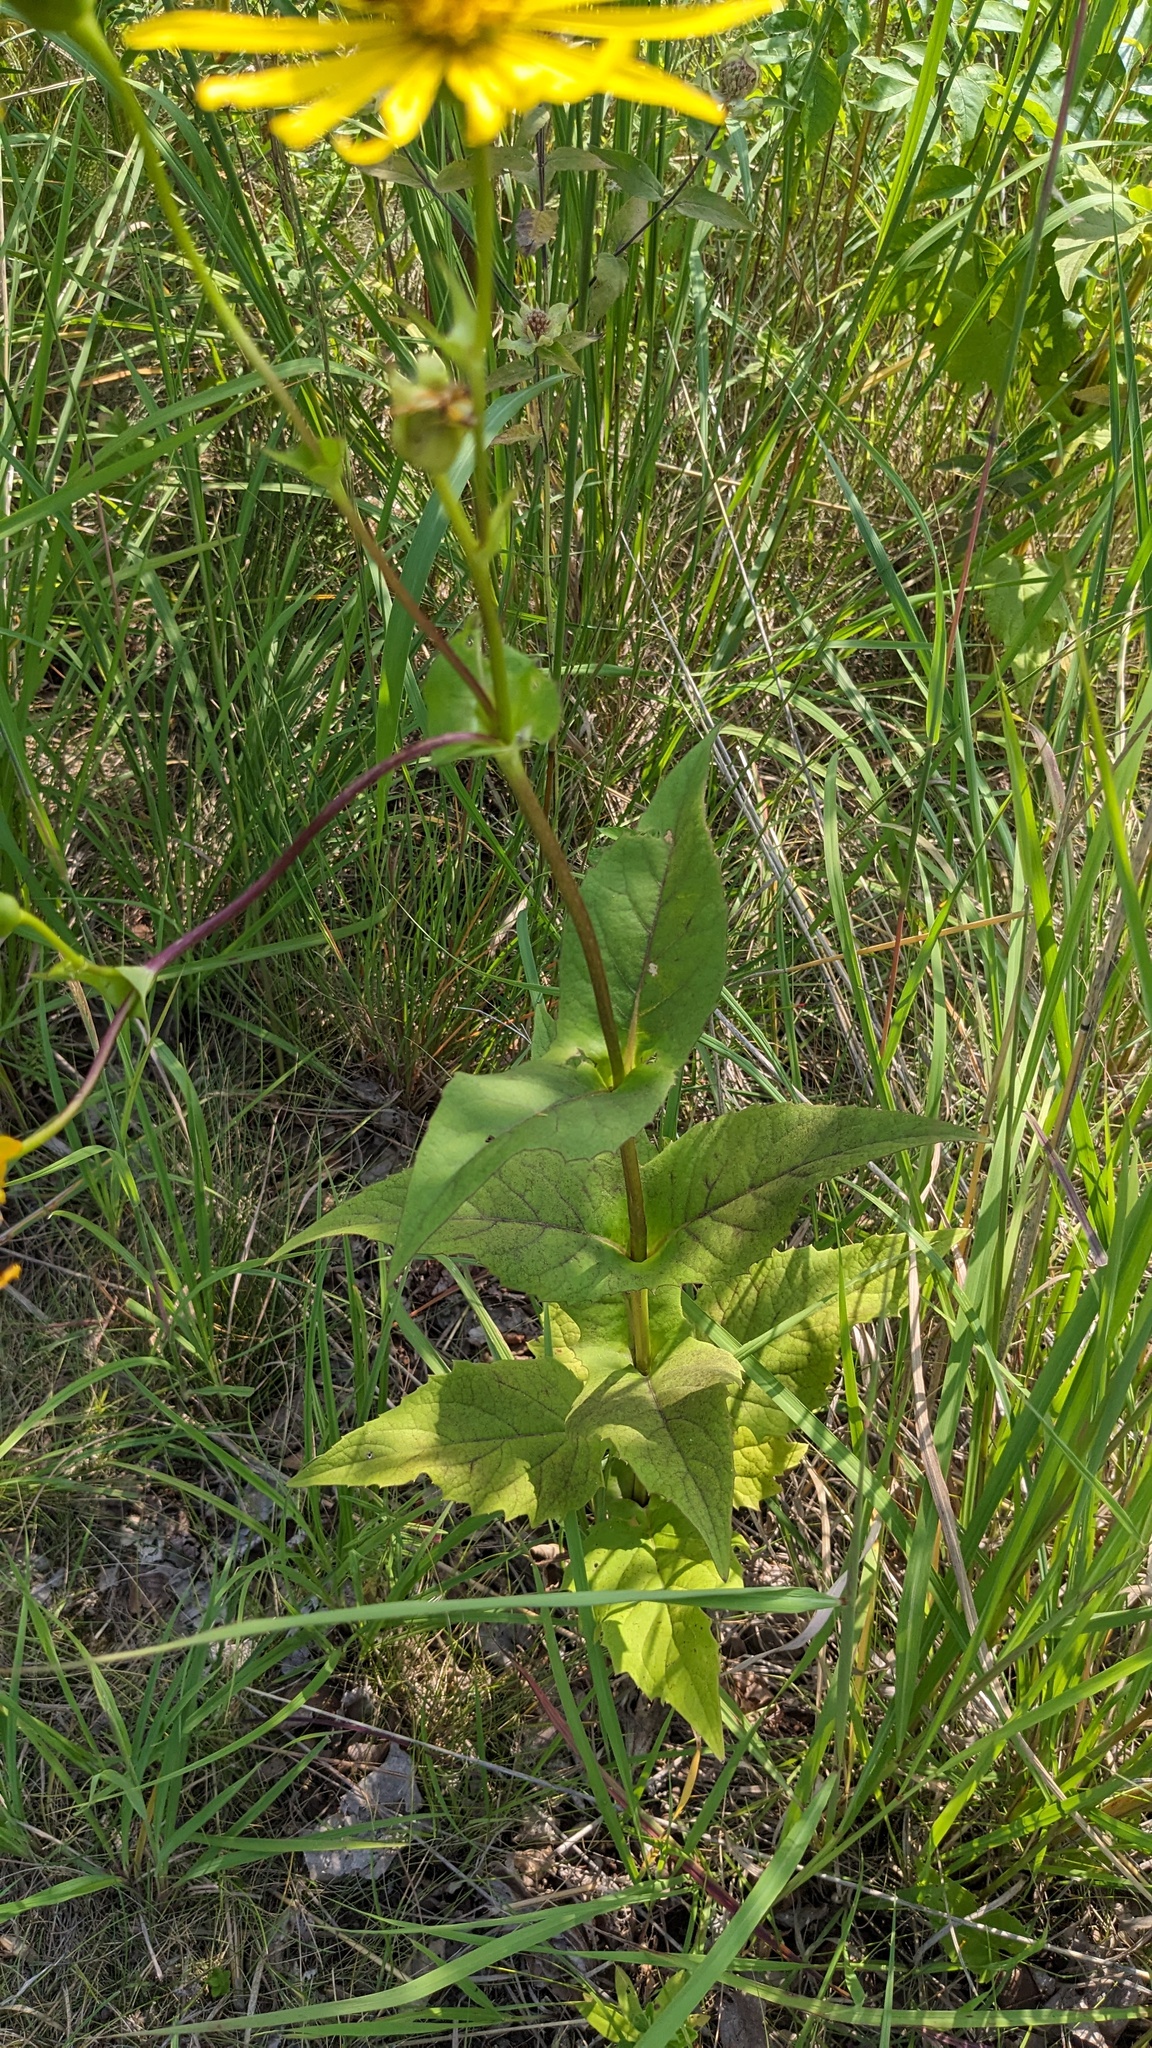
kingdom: Plantae
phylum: Tracheophyta
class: Magnoliopsida
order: Asterales
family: Asteraceae
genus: Silphium
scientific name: Silphium perfoliatum
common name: Cup-plant
